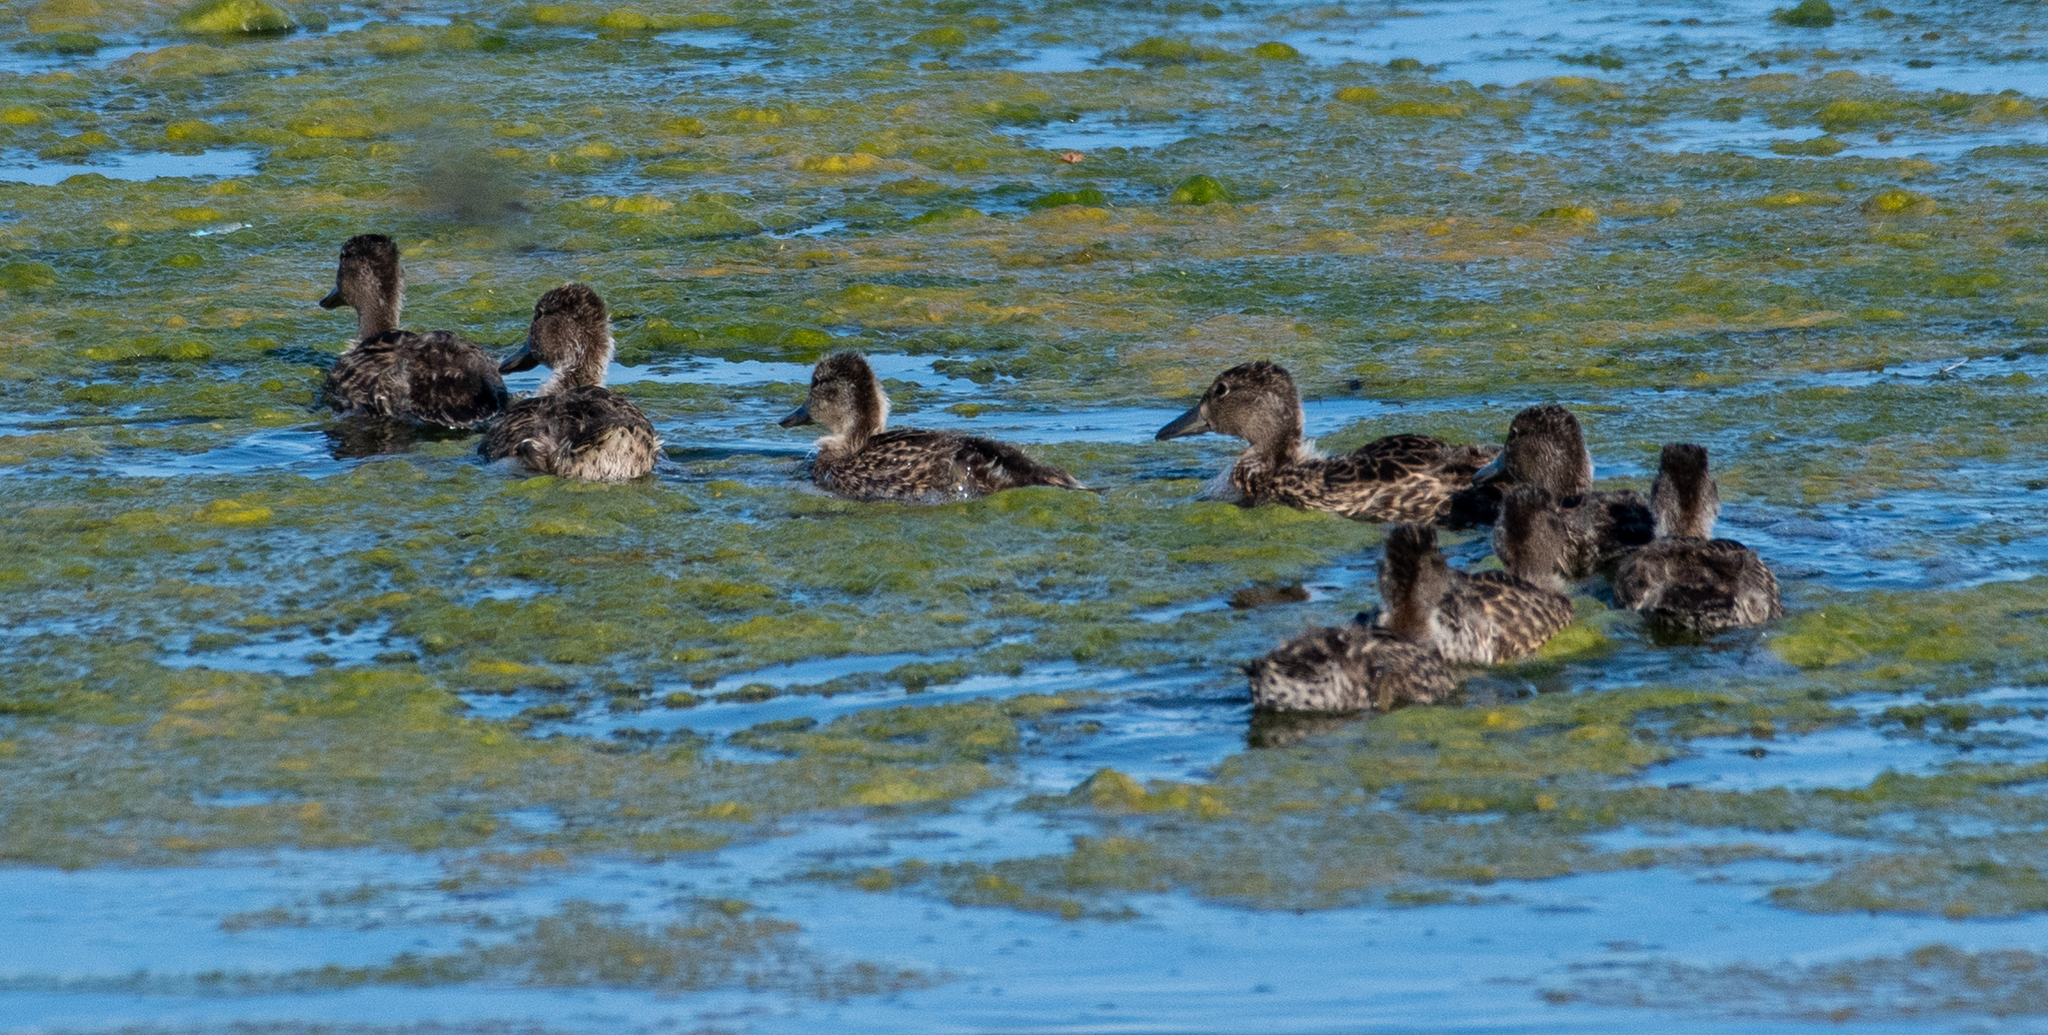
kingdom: Animalia
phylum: Chordata
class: Aves
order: Anseriformes
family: Anatidae
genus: Anas
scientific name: Anas platyrhynchos
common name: Mallard
